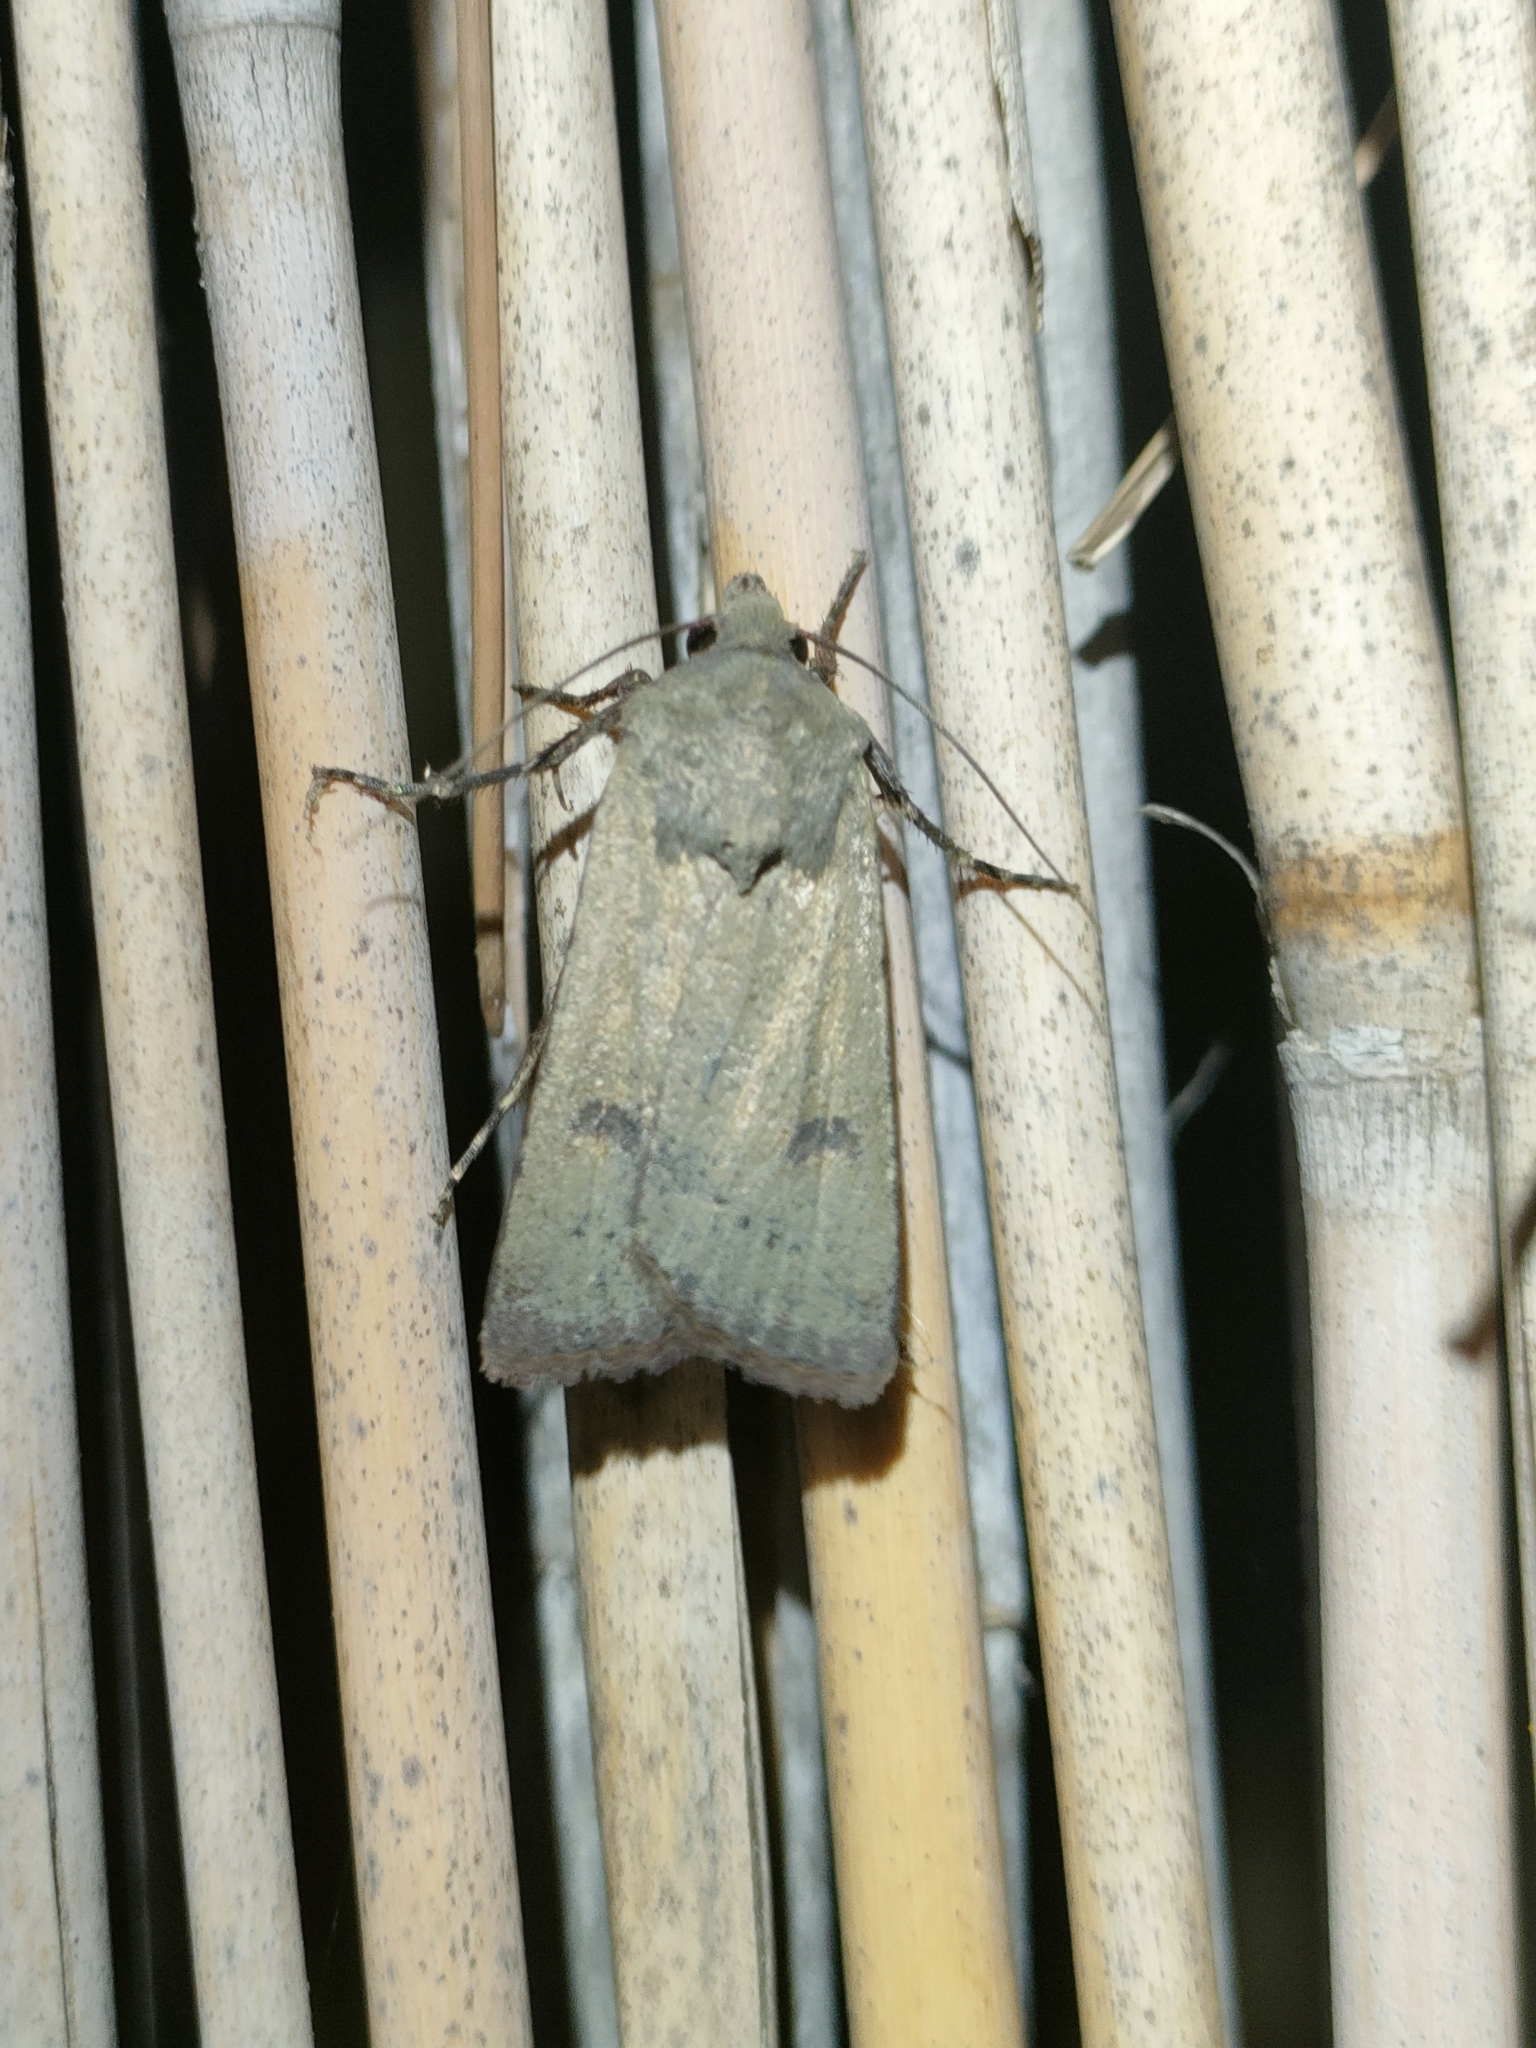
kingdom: Animalia
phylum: Arthropoda
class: Insecta
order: Lepidoptera
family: Noctuidae
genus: Agrotis
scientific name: Agrotis trux
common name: Crescent dart
